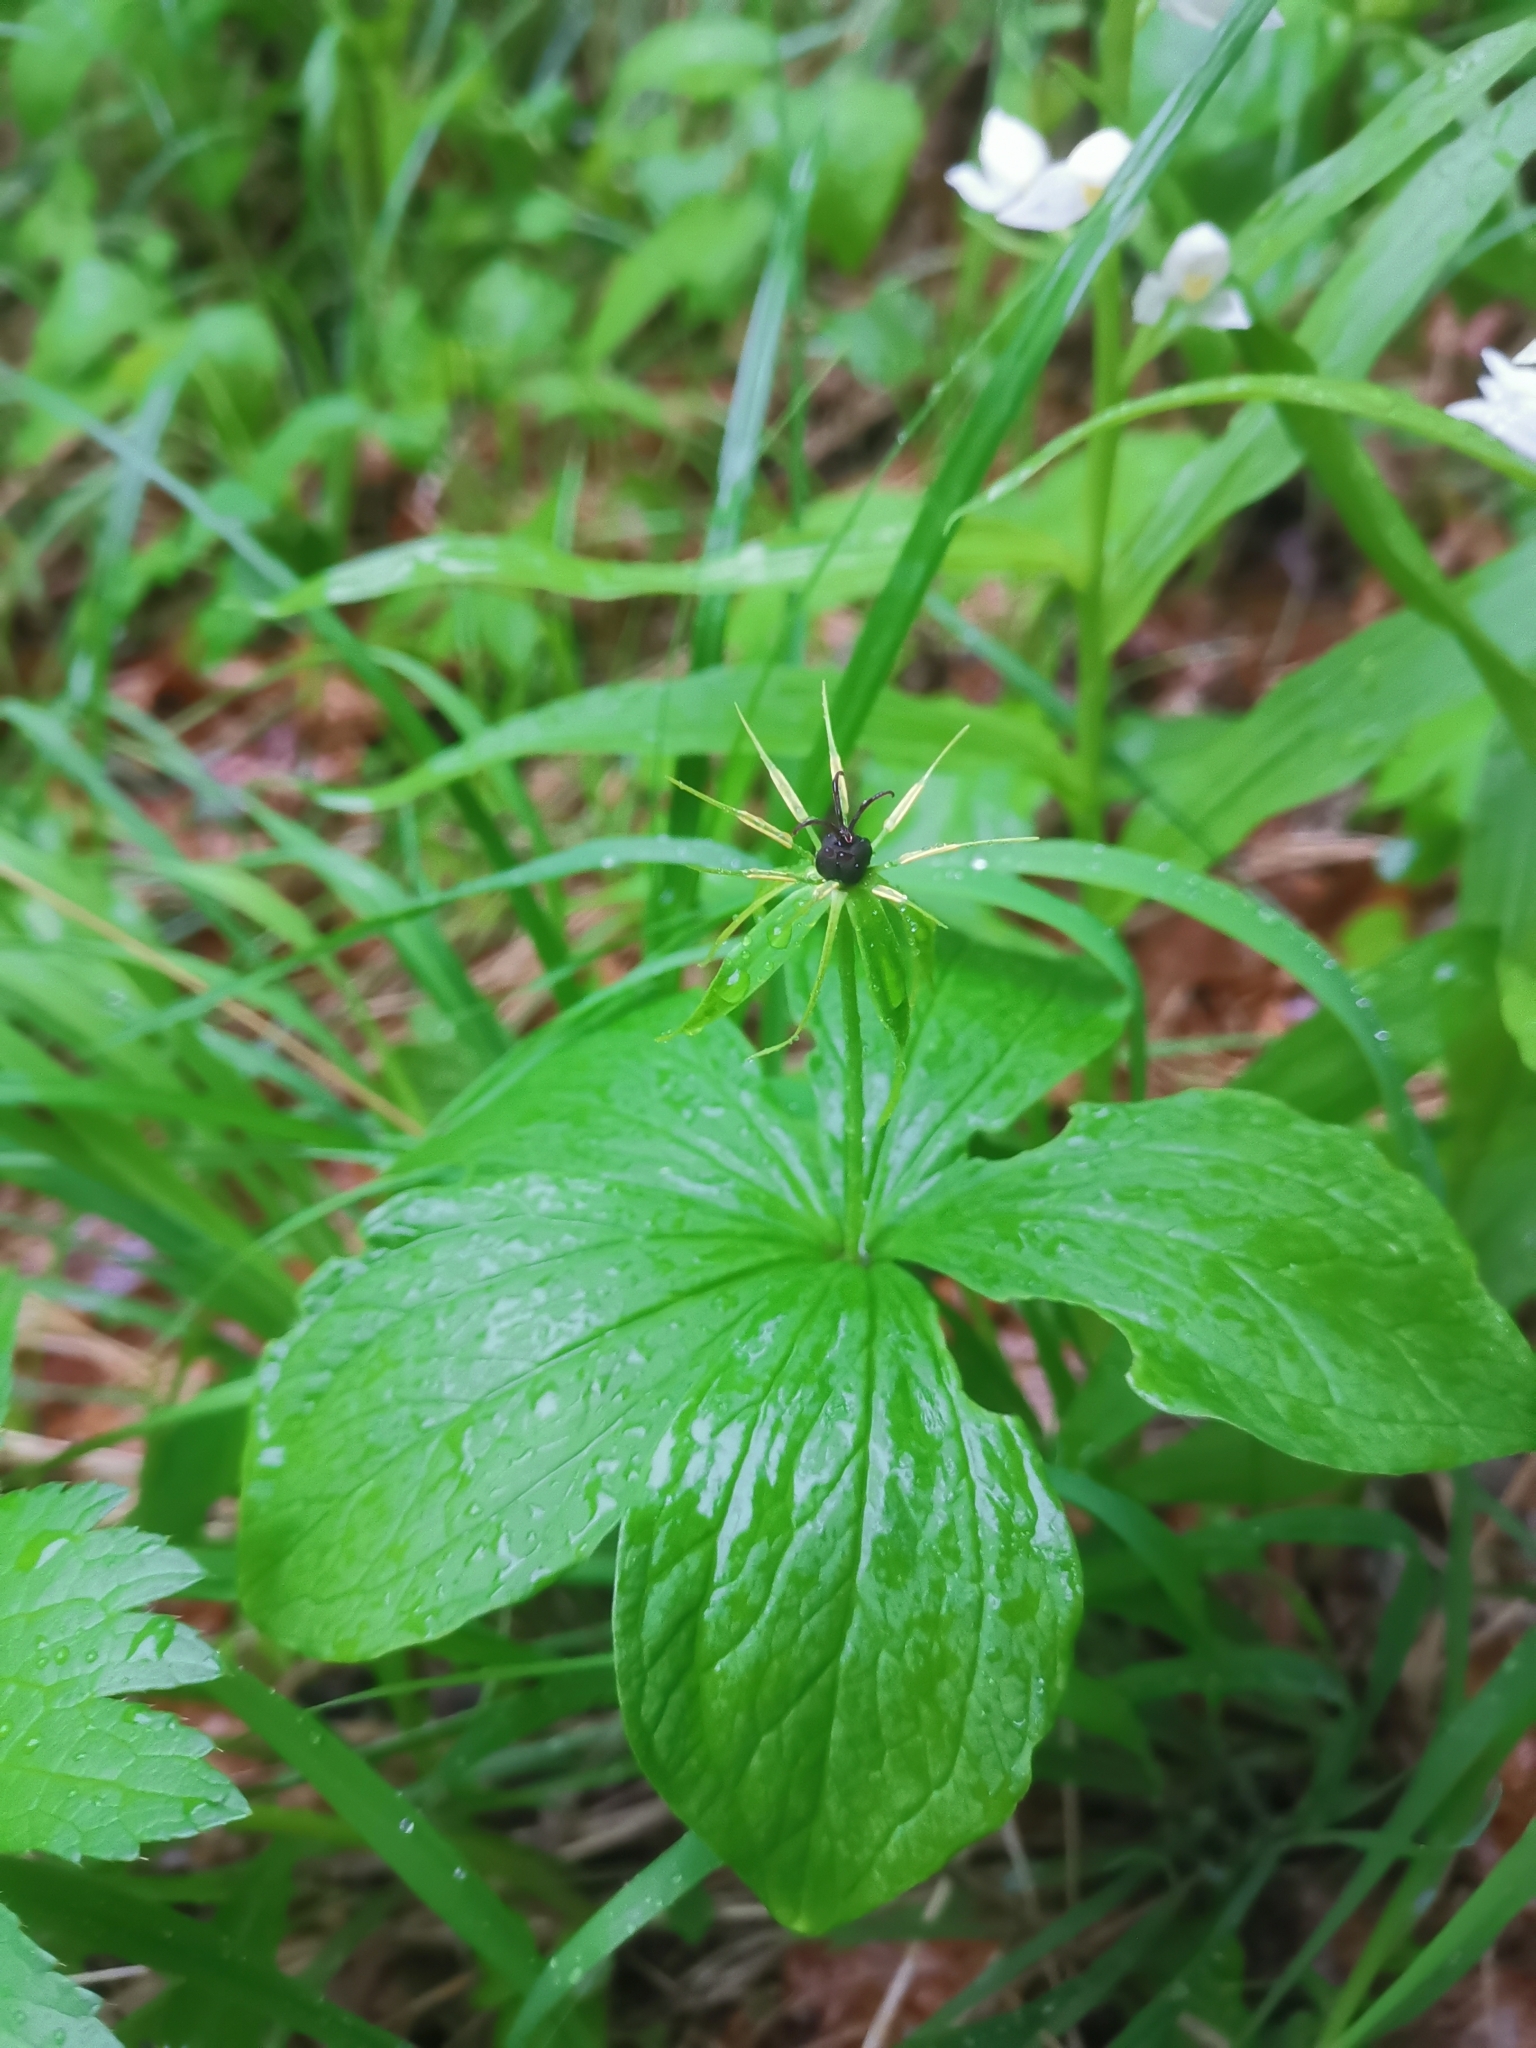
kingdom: Plantae
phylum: Tracheophyta
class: Liliopsida
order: Liliales
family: Melanthiaceae
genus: Paris
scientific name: Paris quadrifolia
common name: Herb-paris
